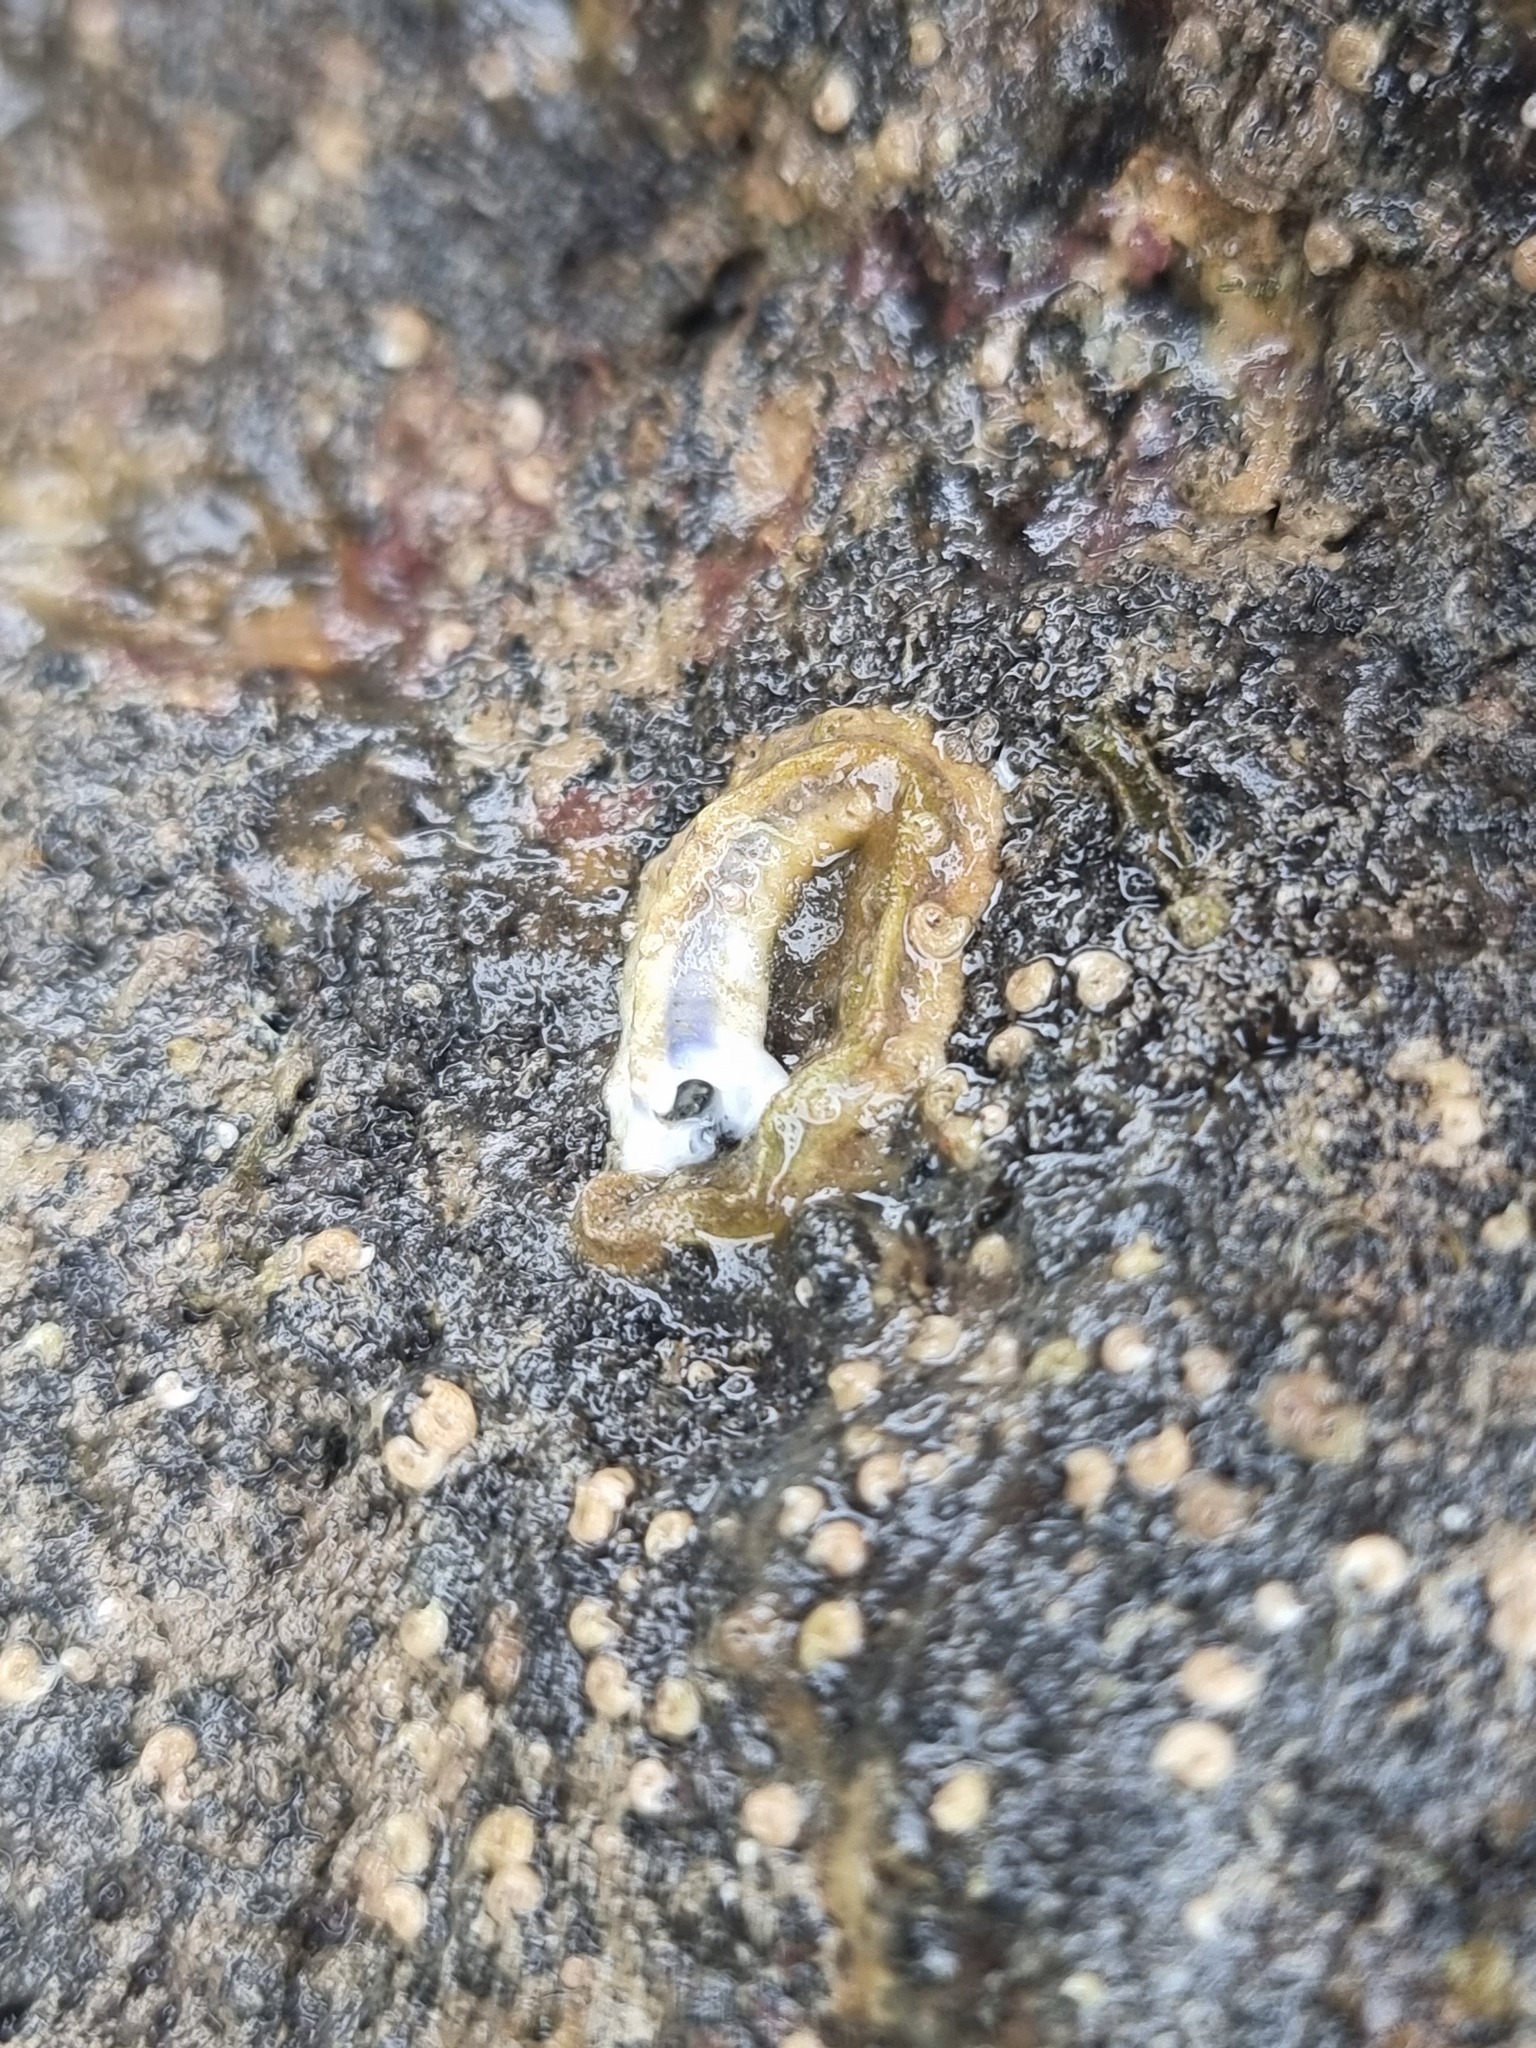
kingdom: Animalia
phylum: Annelida
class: Polychaeta
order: Sabellida
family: Serpulidae
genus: Spirobranchus
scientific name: Spirobranchus cariniferus
